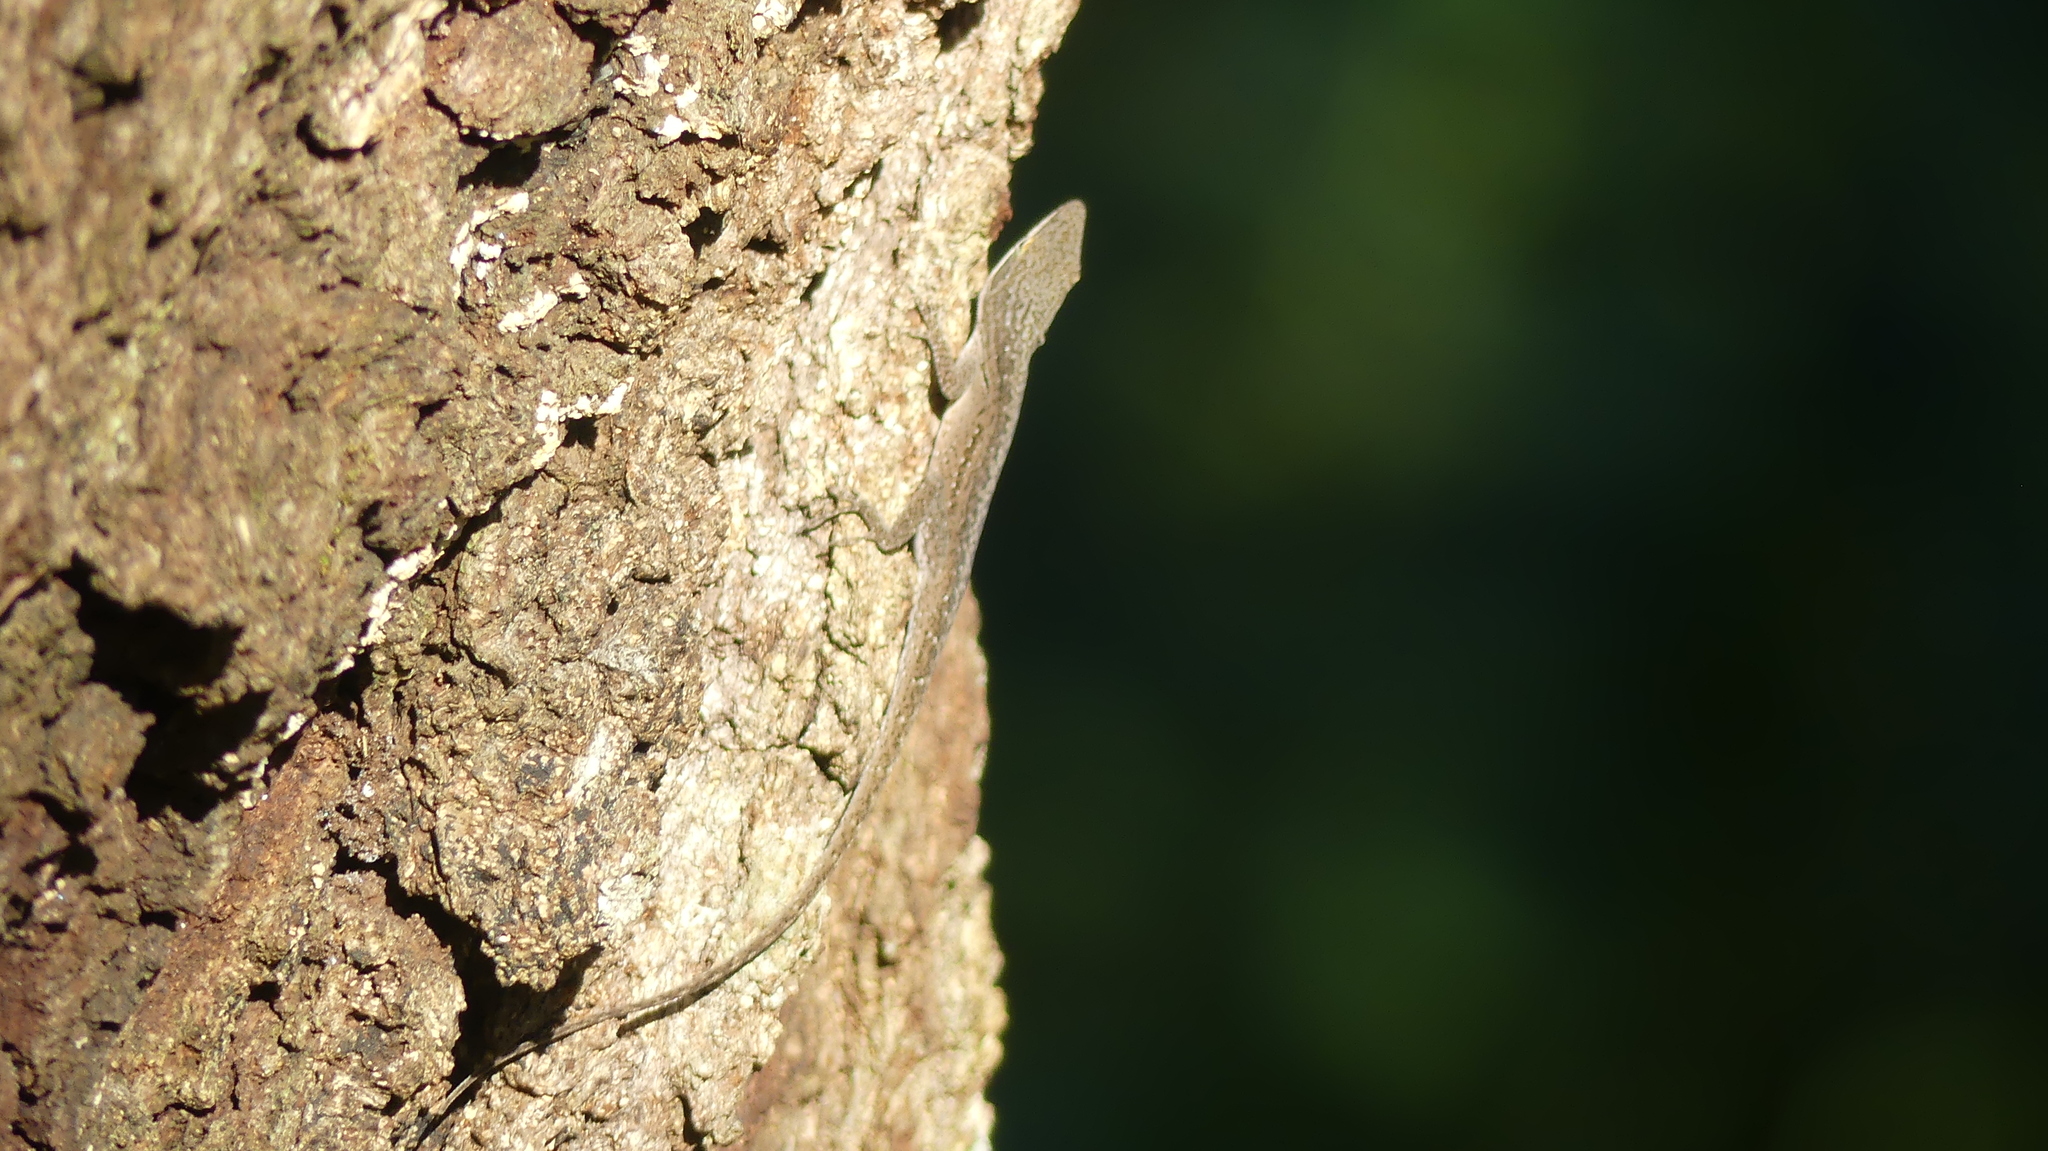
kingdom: Animalia
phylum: Chordata
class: Squamata
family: Dactyloidae
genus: Anolis
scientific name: Anolis carolinensis
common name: Green anole
